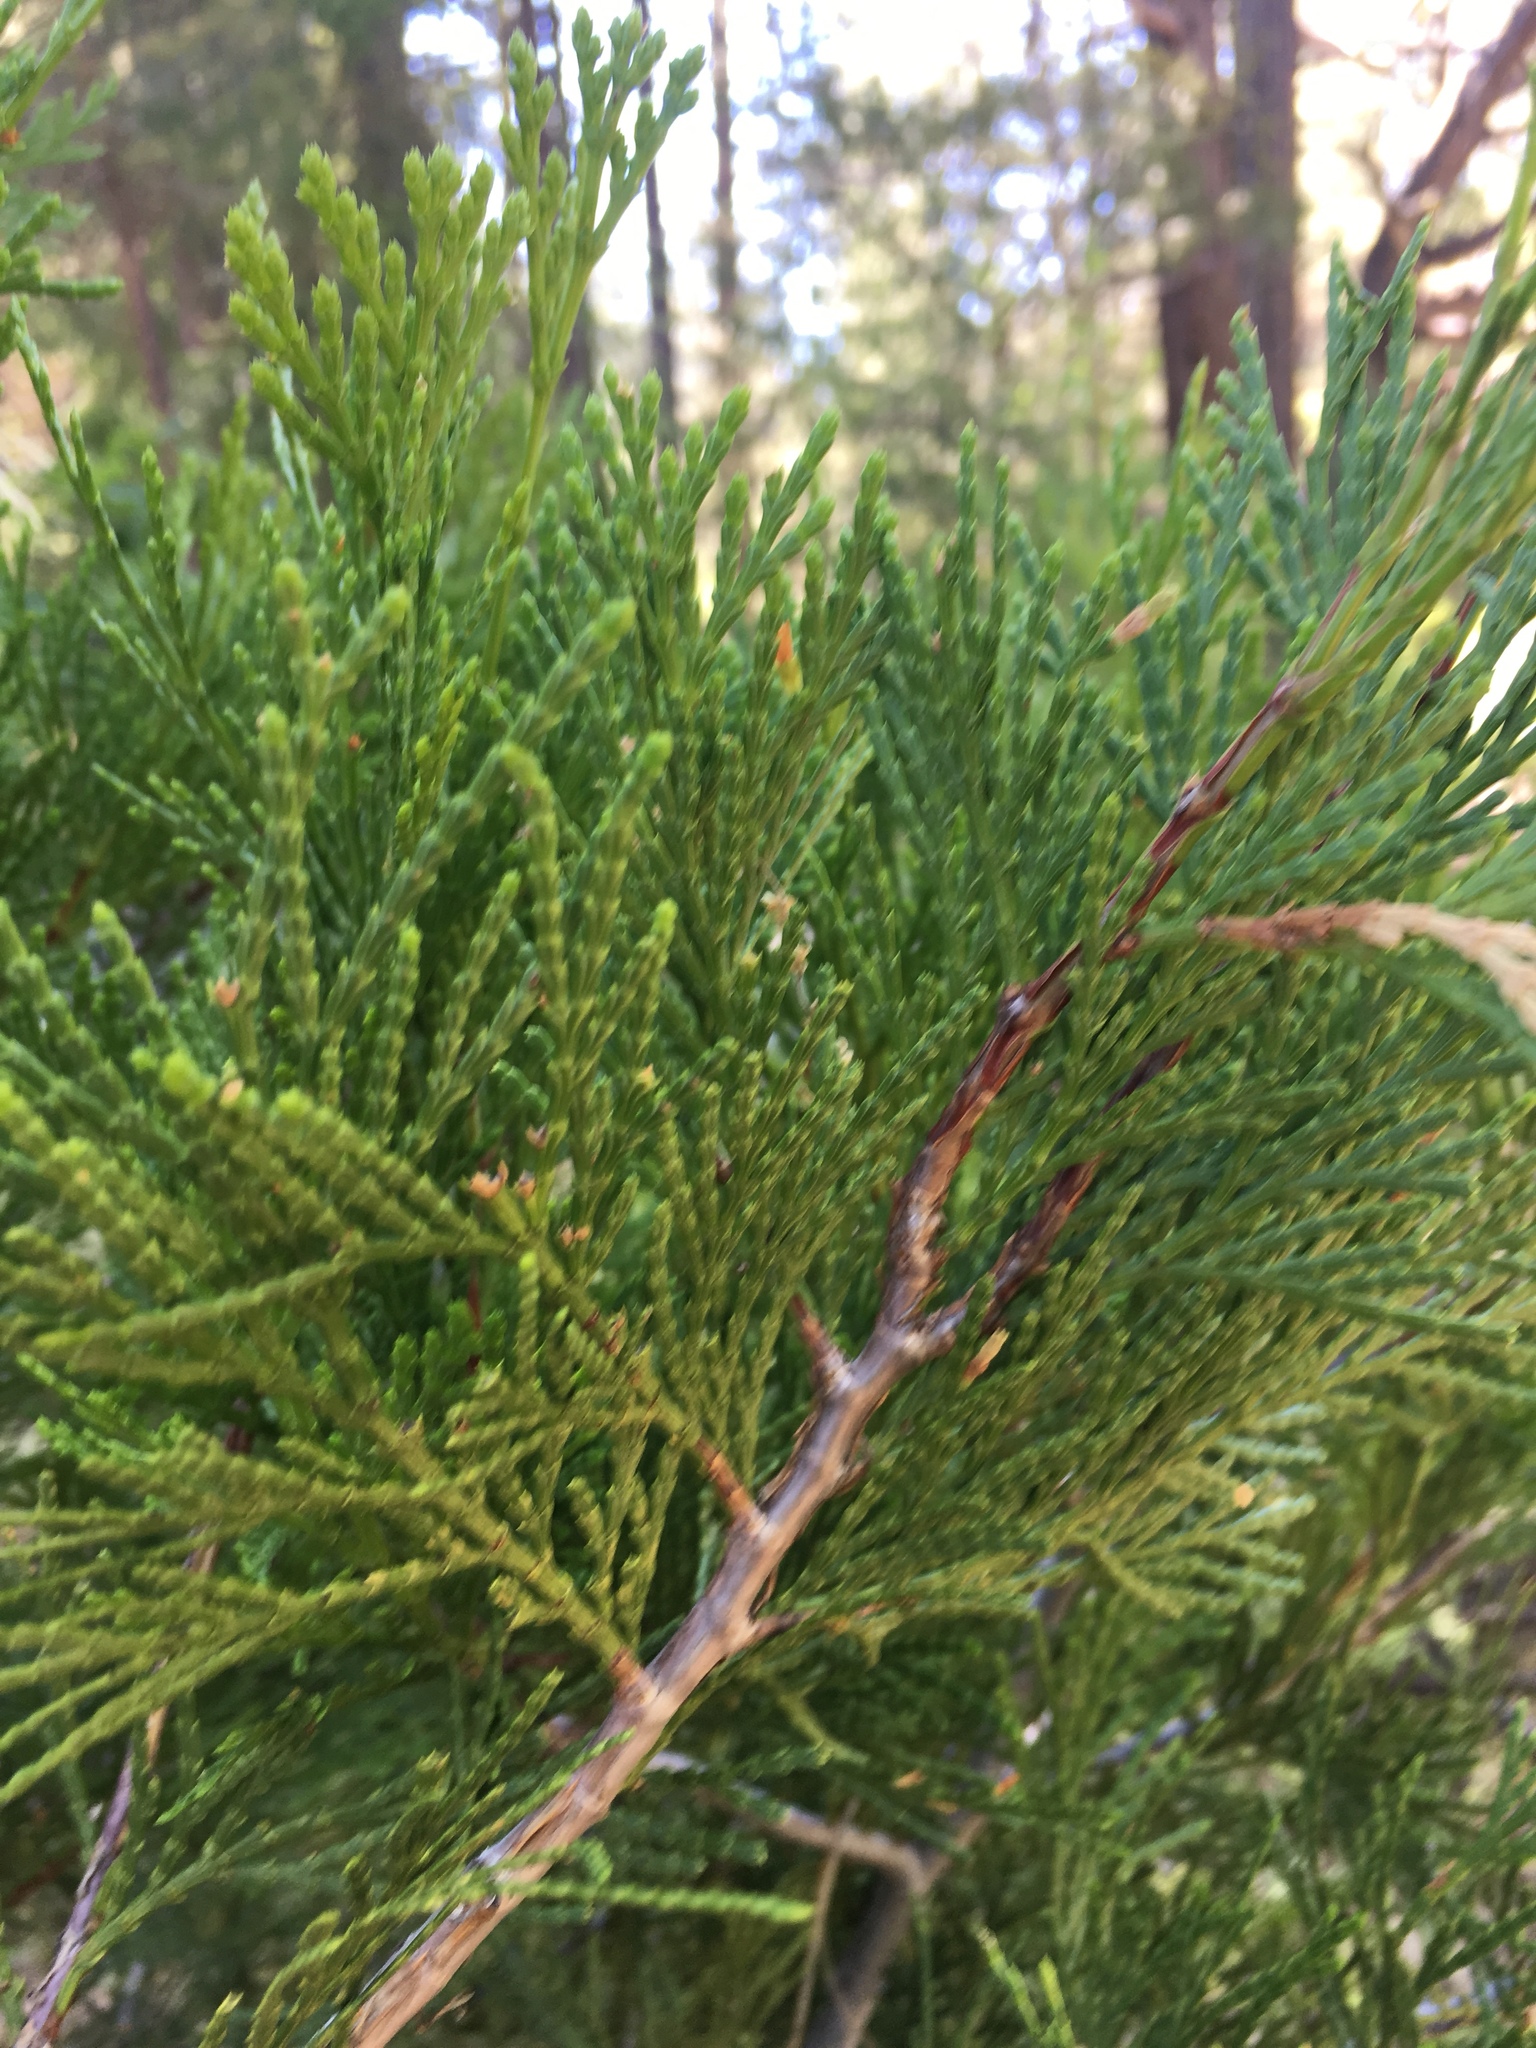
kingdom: Plantae
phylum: Tracheophyta
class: Pinopsida
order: Pinales
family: Cupressaceae
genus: Calocedrus
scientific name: Calocedrus decurrens
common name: Californian incense-cedar
